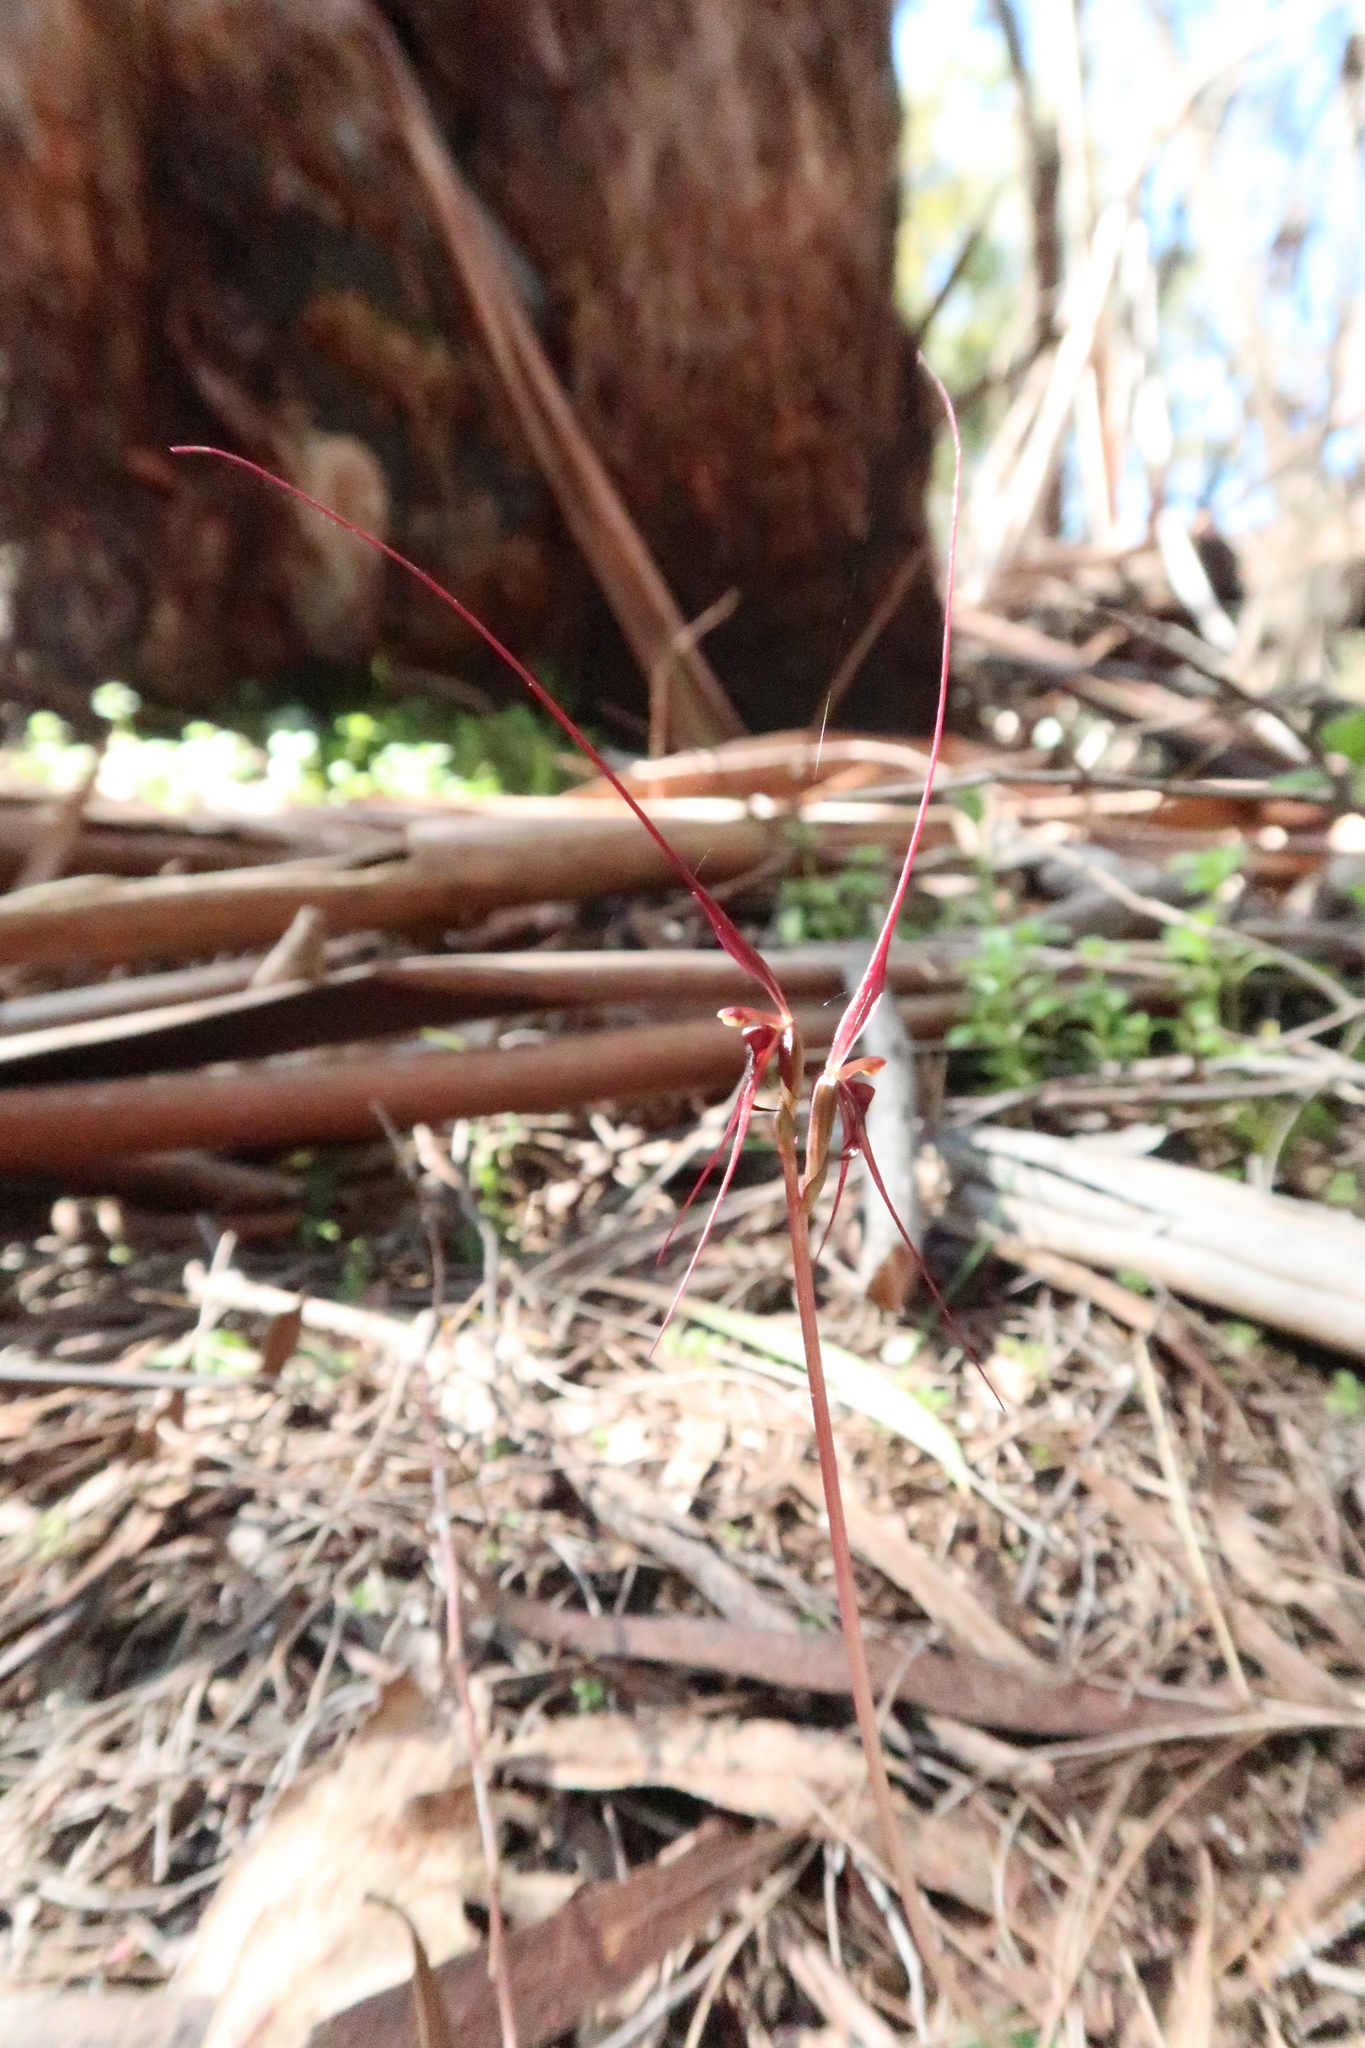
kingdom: Plantae
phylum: Tracheophyta
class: Liliopsida
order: Asparagales
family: Orchidaceae
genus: Acianthus
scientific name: Acianthus caudatus
